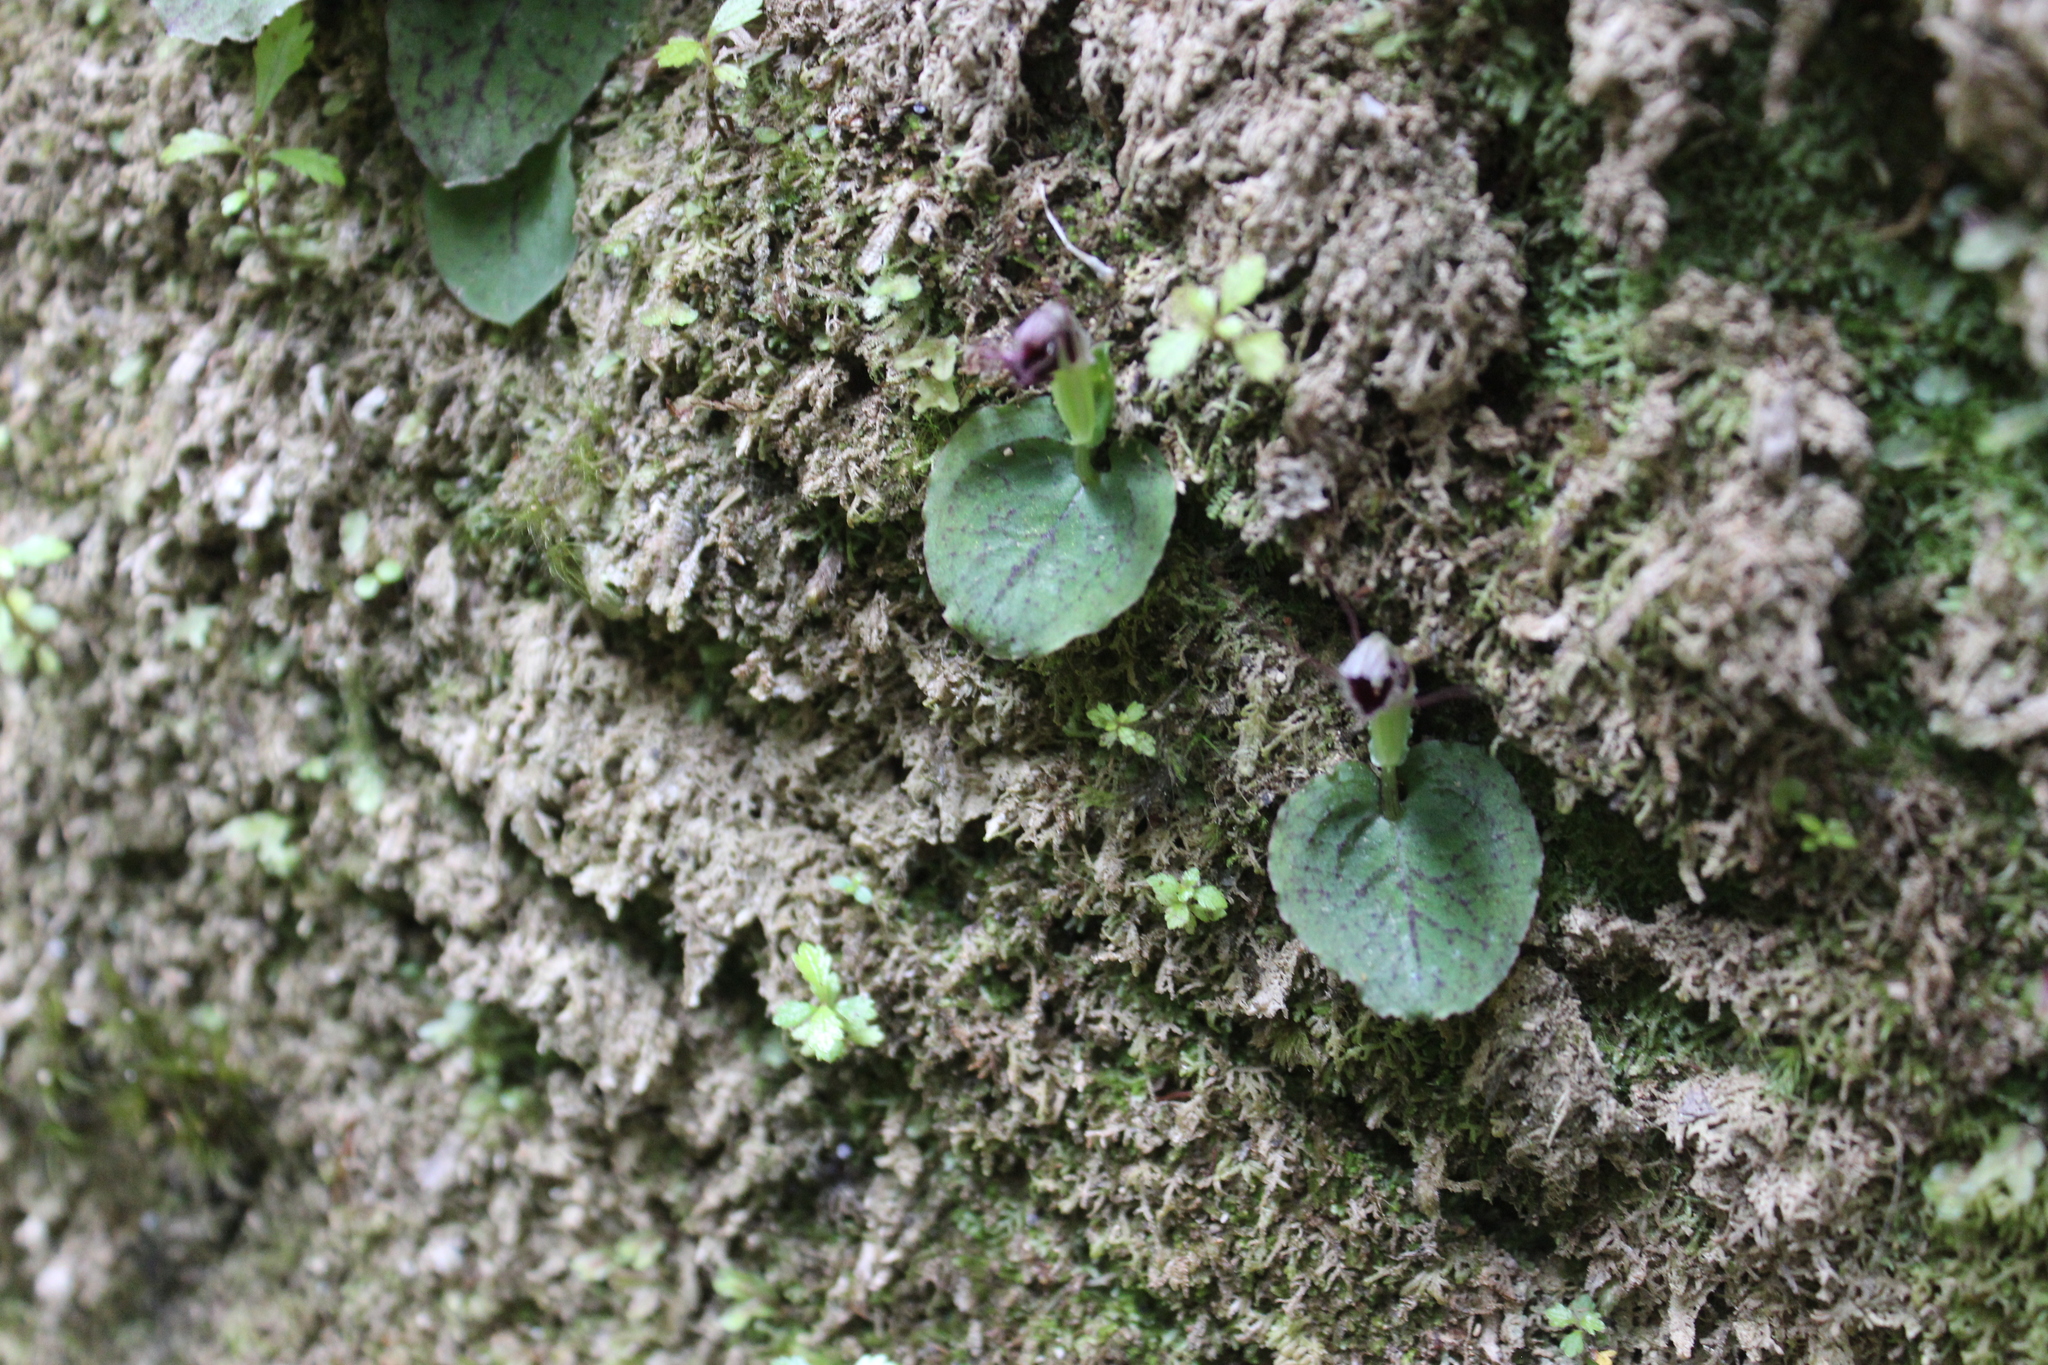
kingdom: Plantae
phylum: Tracheophyta
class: Liliopsida
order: Asparagales
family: Orchidaceae
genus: Corybas
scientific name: Corybas oblongus
